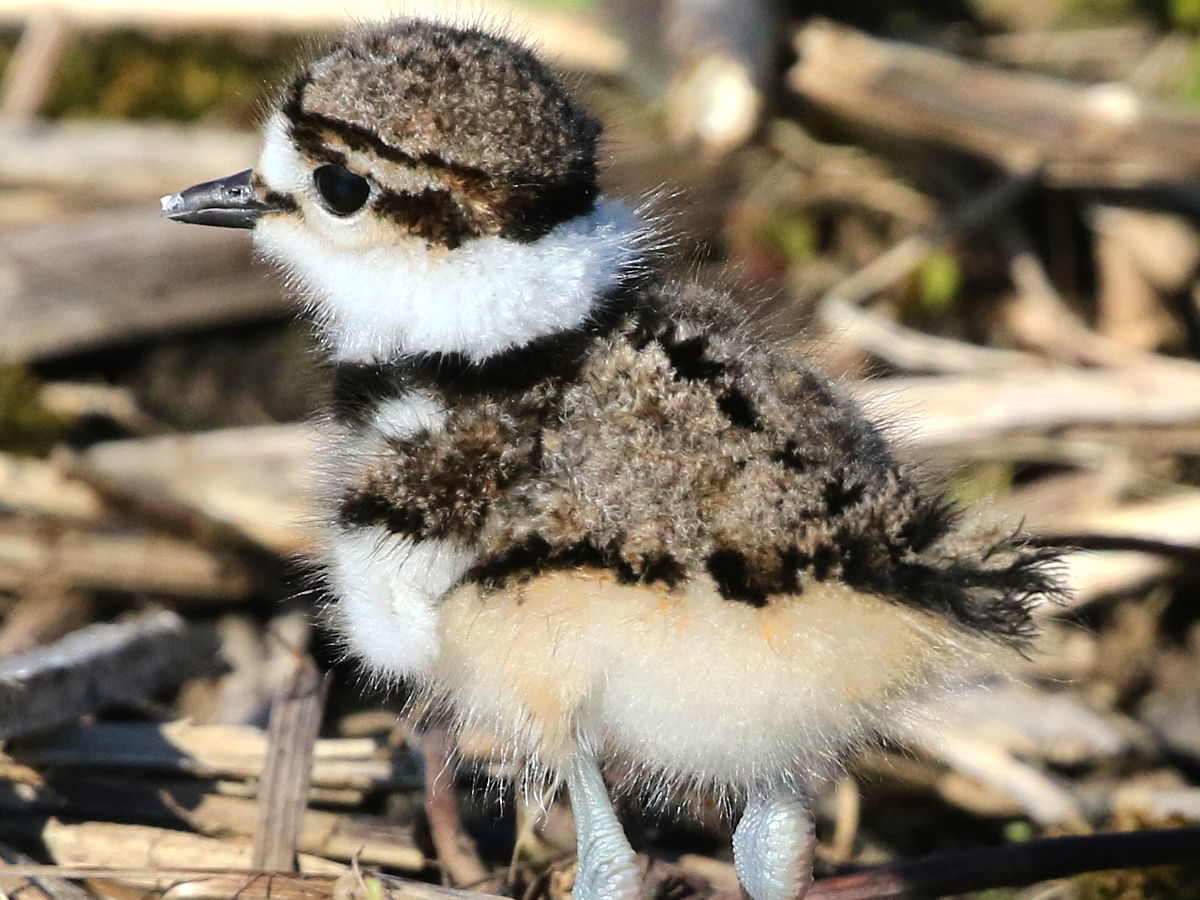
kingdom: Animalia
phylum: Chordata
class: Aves
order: Charadriiformes
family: Charadriidae
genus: Charadrius
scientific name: Charadrius vociferus
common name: Killdeer
